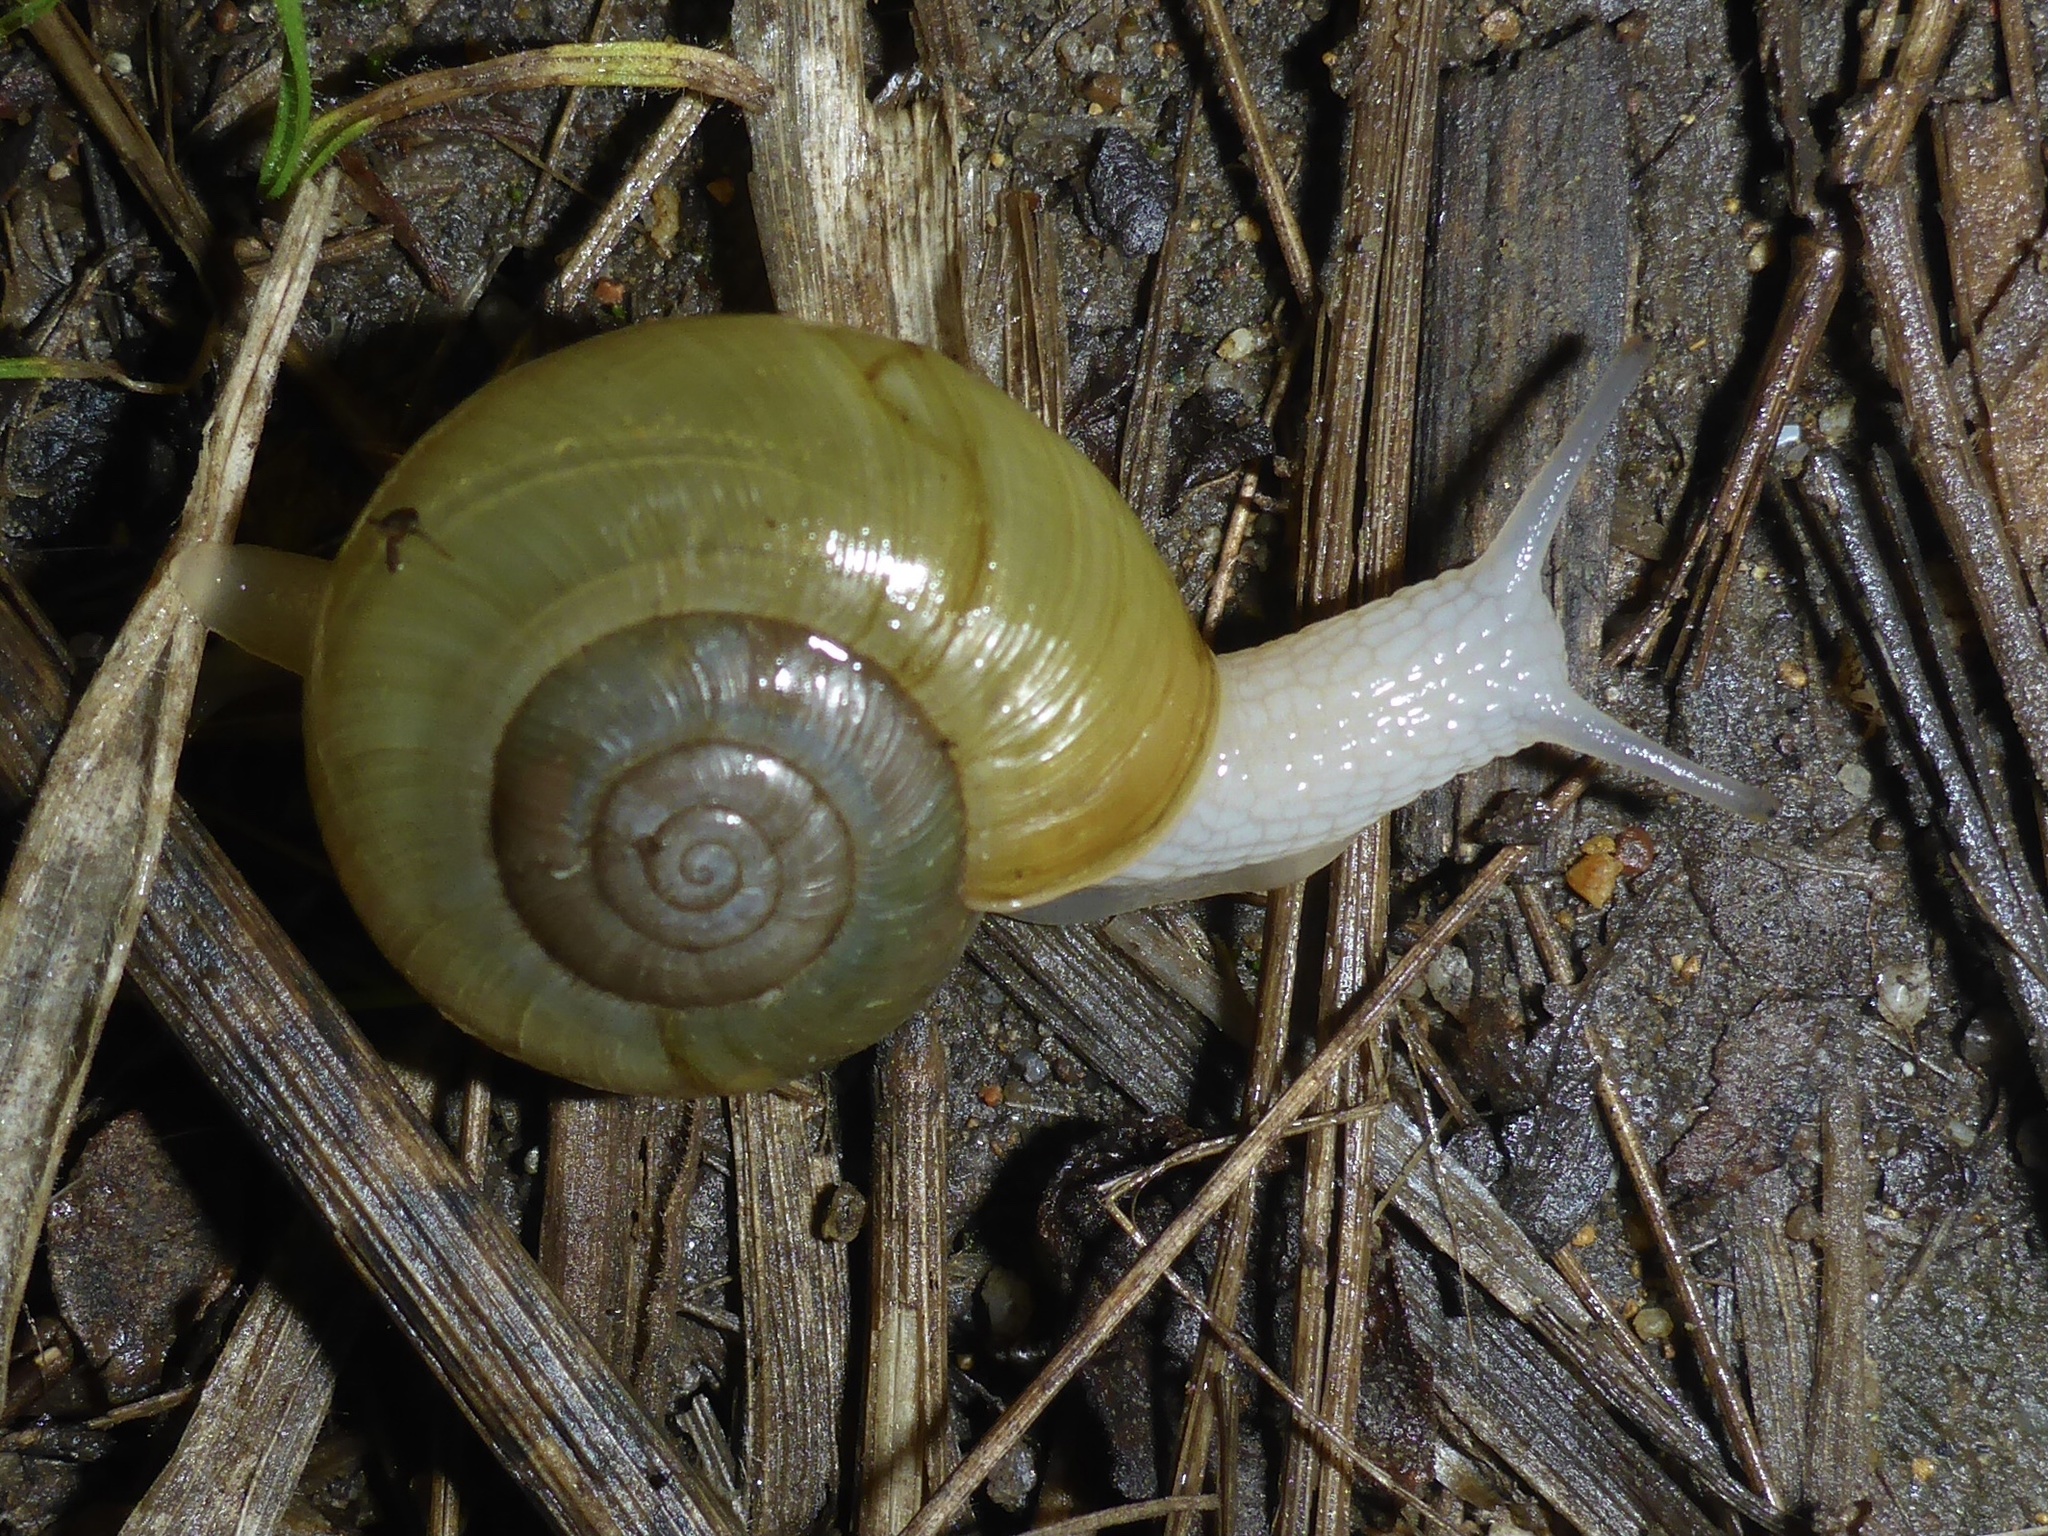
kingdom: Animalia
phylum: Mollusca
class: Gastropoda
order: Stylommatophora
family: Haplotrematidae
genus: Haplotrema
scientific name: Haplotrema minimum
